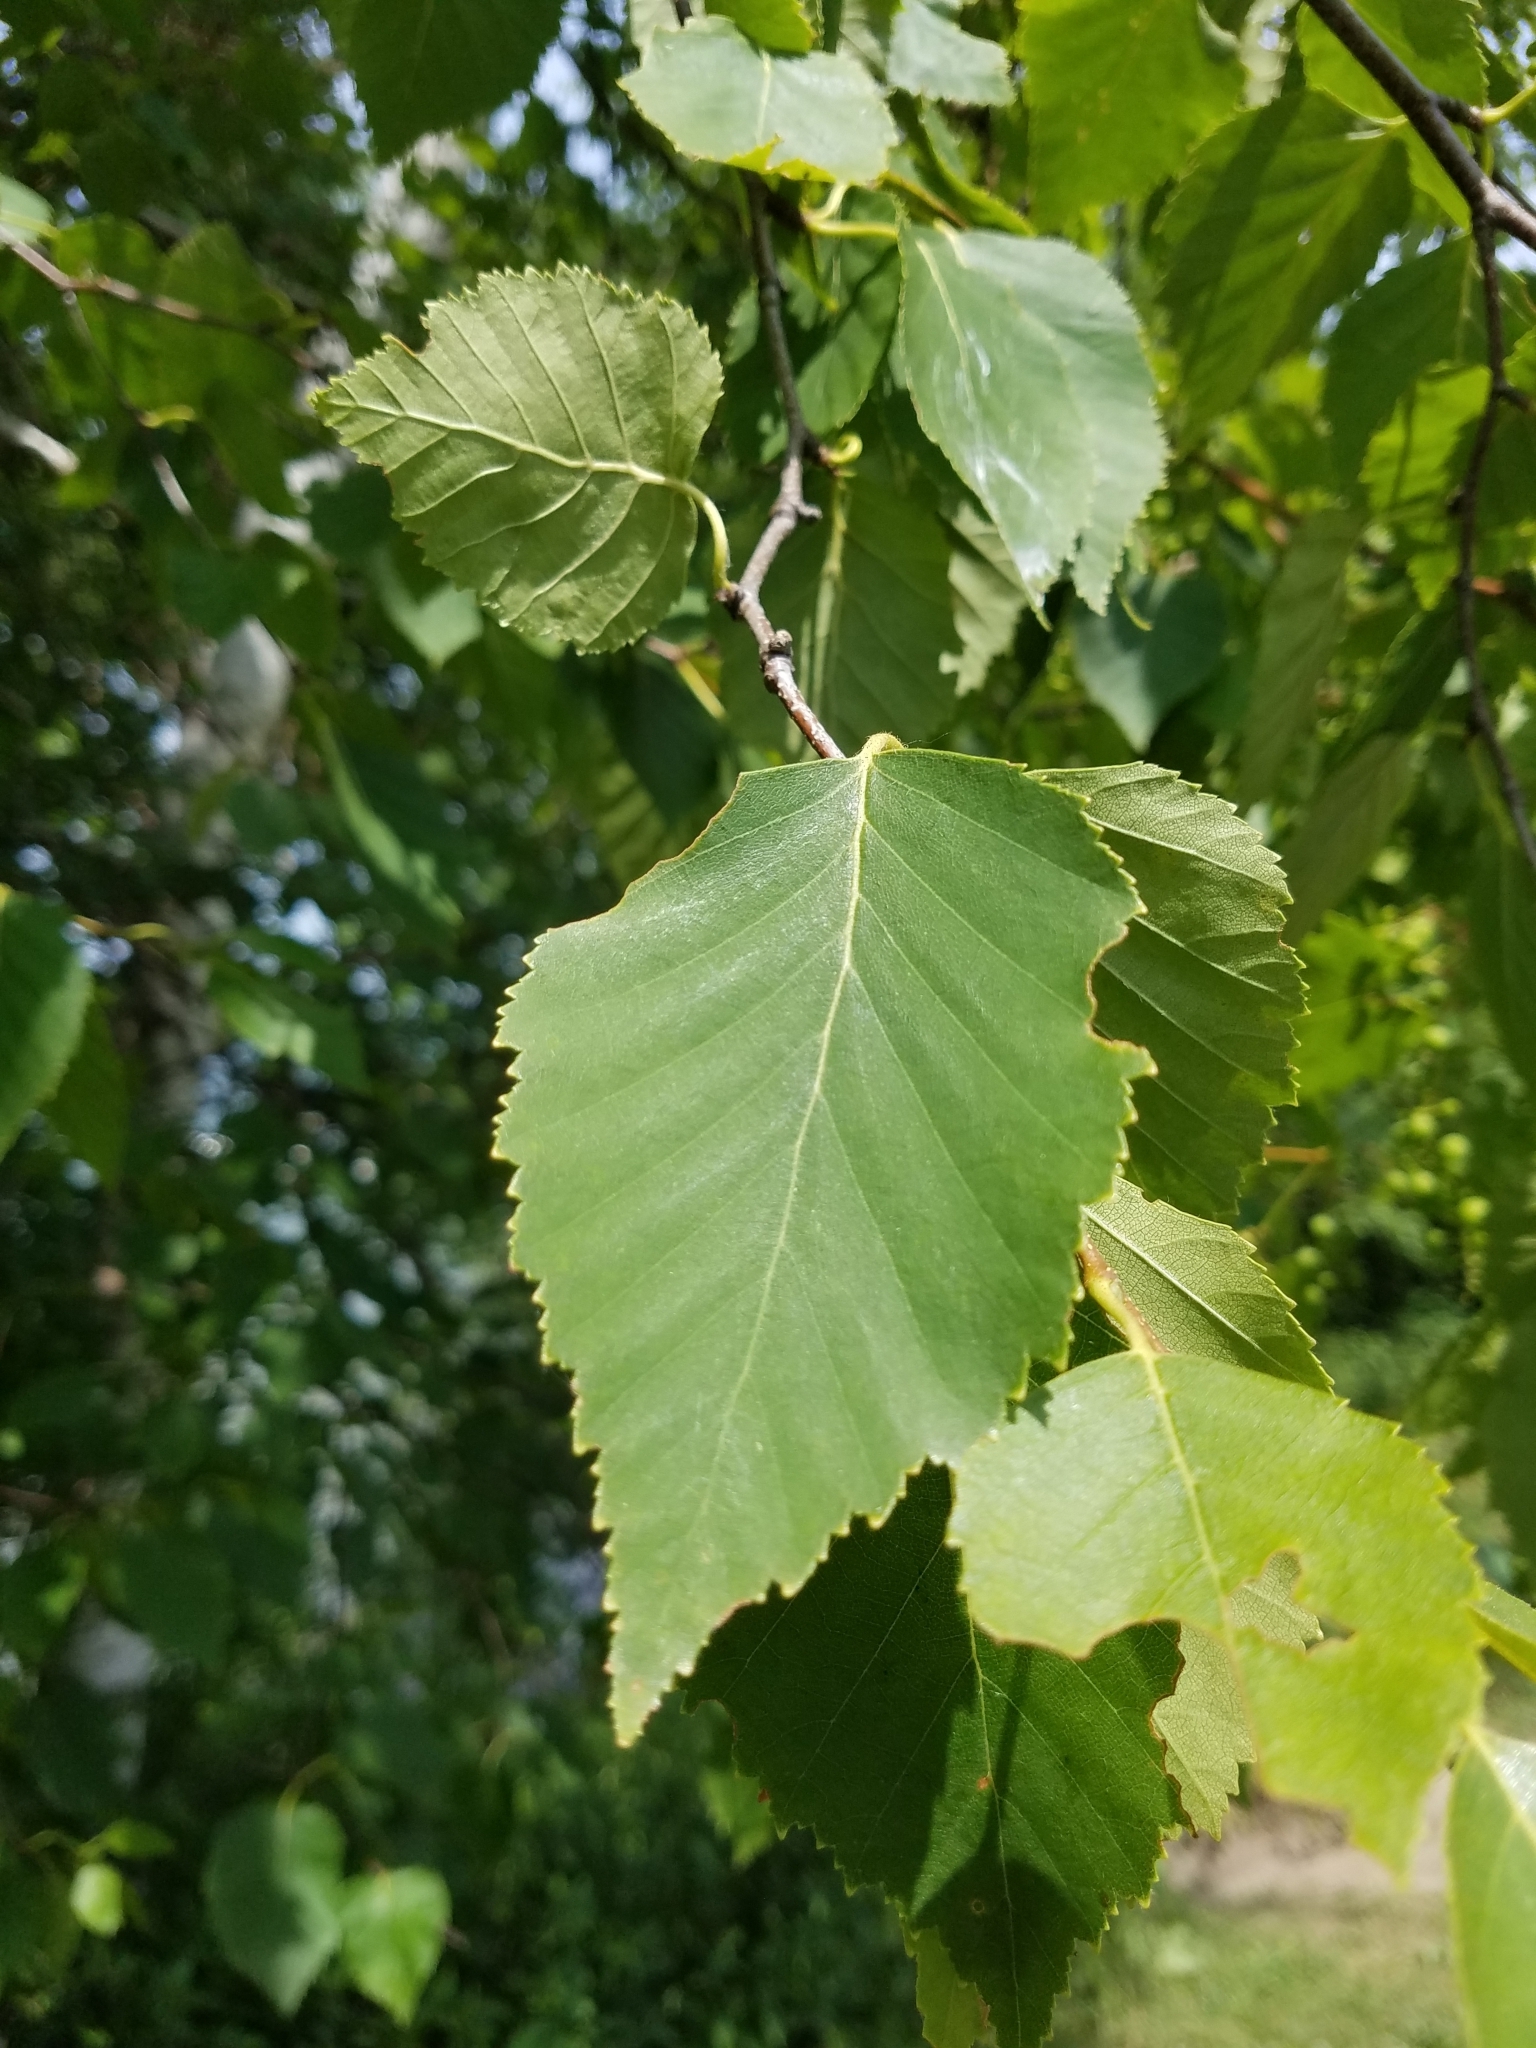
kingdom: Plantae
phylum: Tracheophyta
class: Magnoliopsida
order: Fagales
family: Betulaceae
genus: Betula
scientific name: Betula papyrifera
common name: Paper birch
